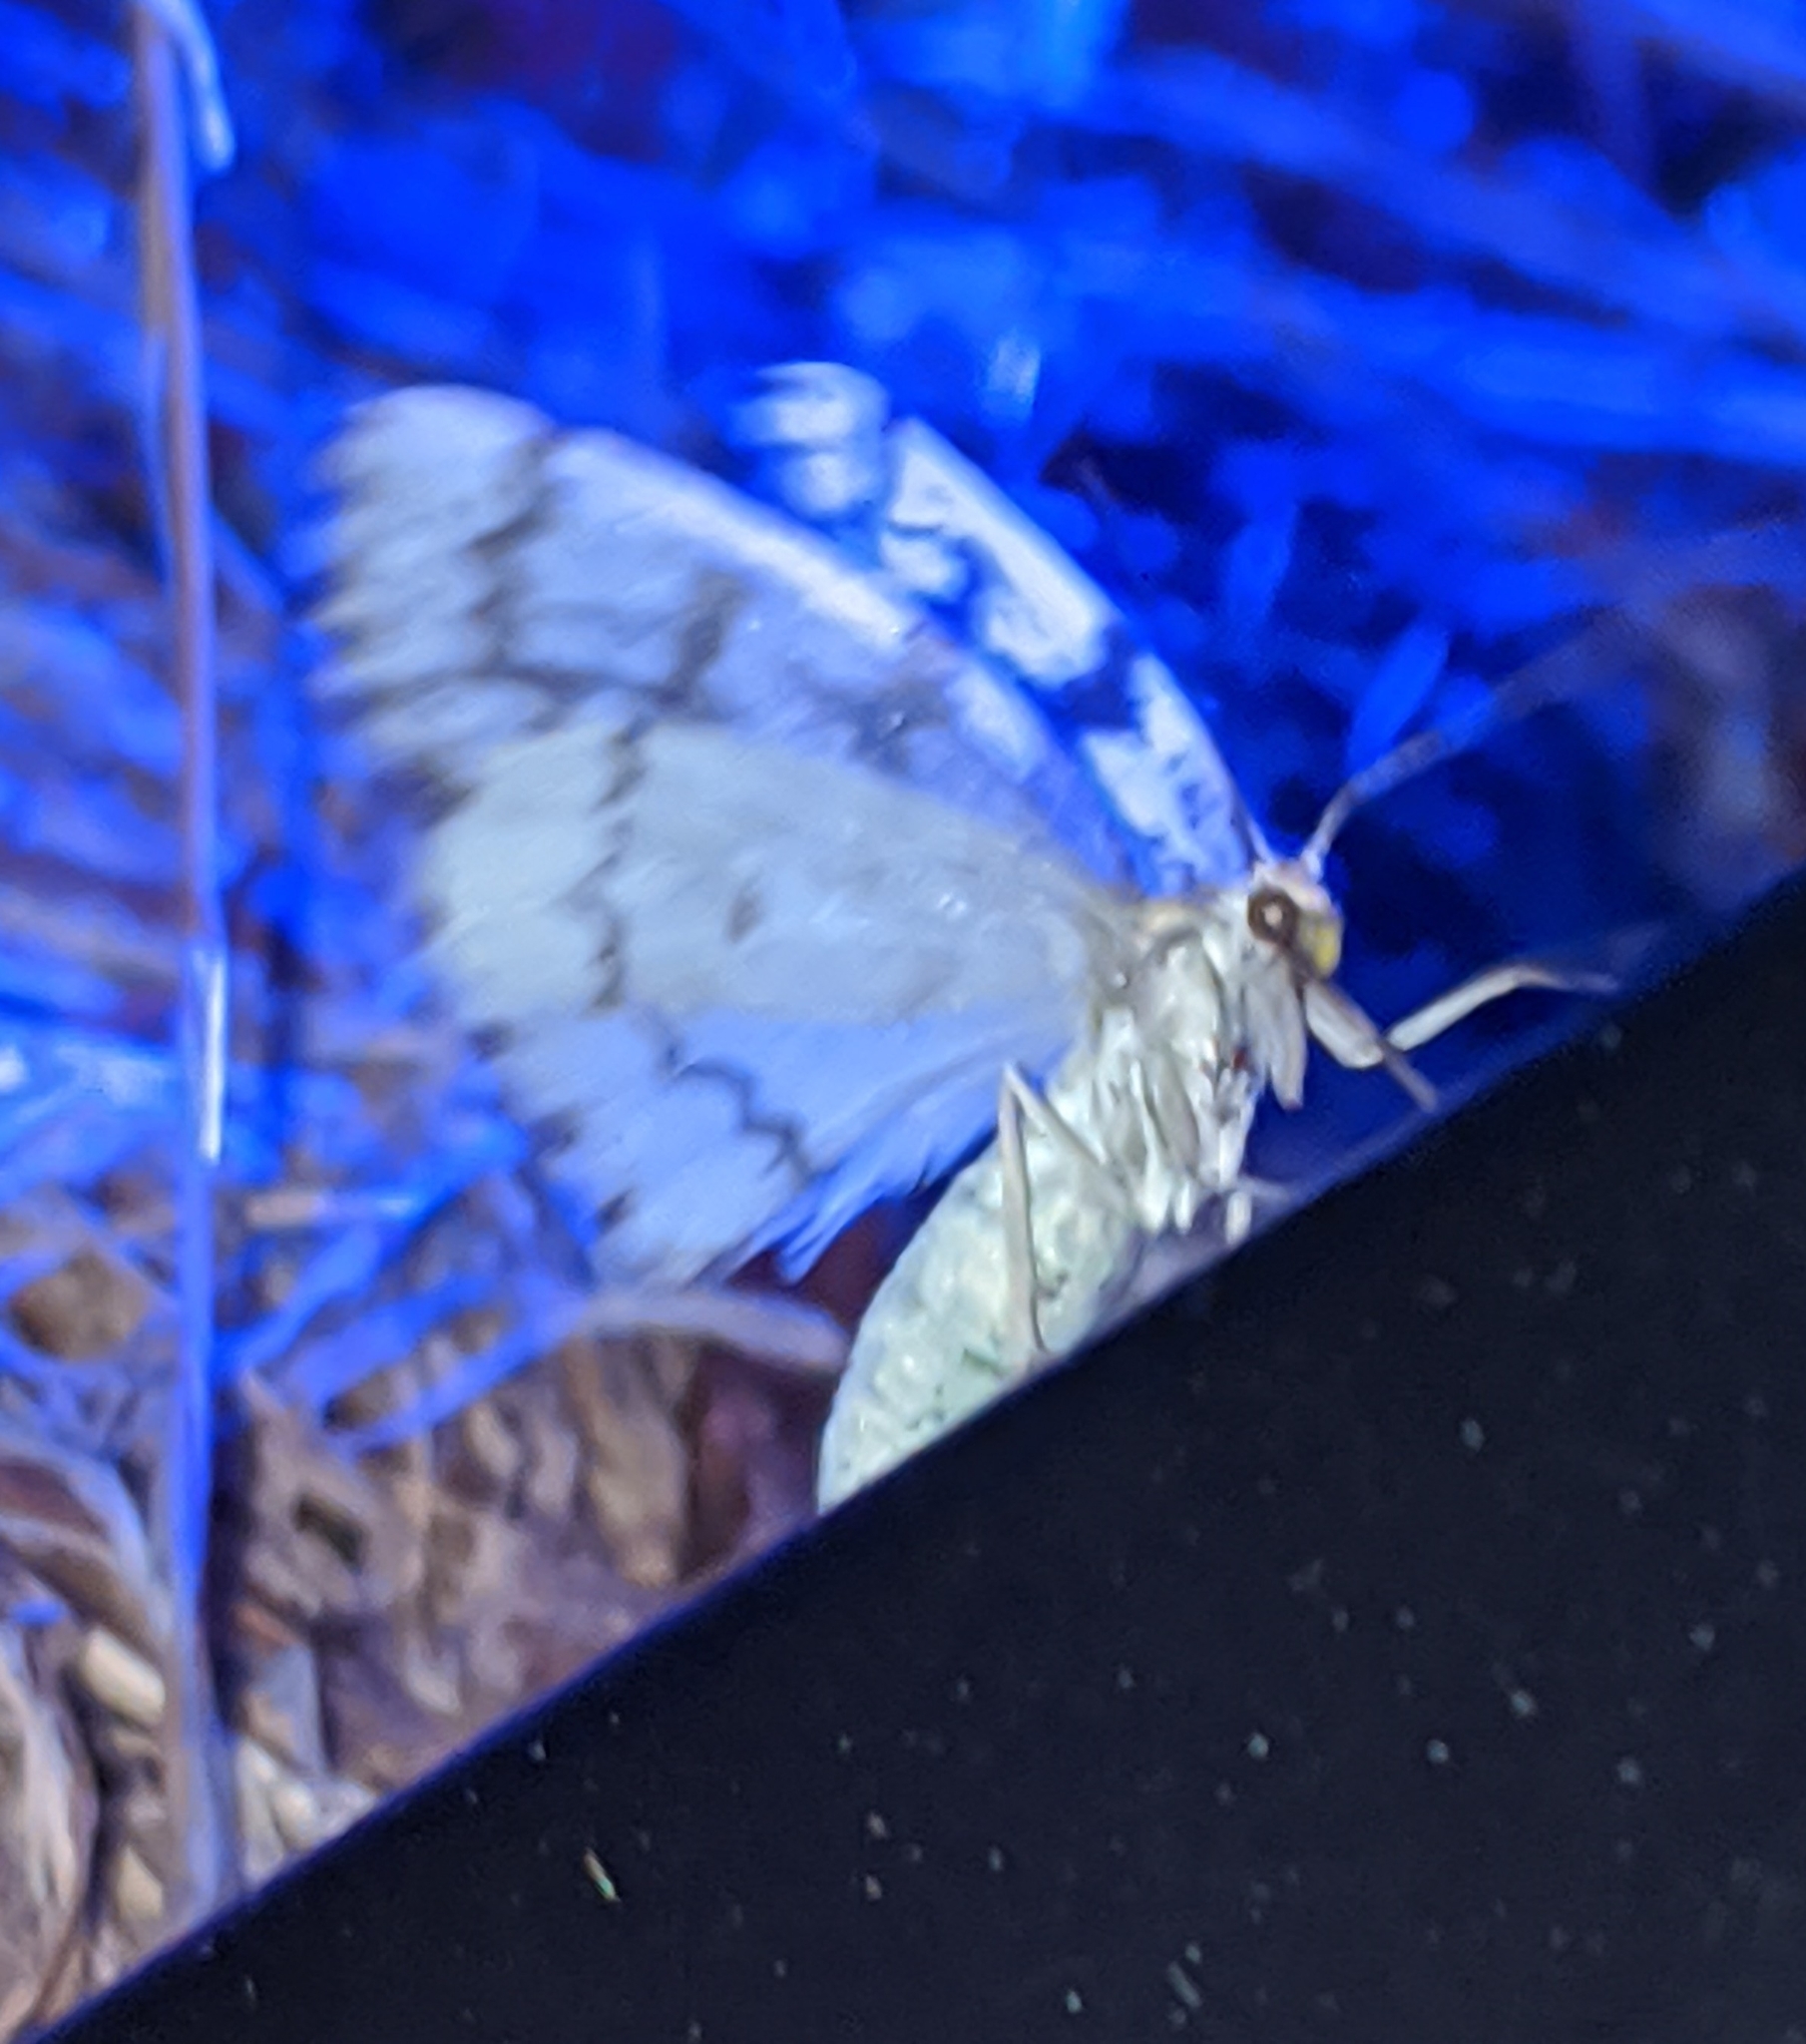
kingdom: Animalia
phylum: Arthropoda
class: Insecta
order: Lepidoptera
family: Geometridae
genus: Nepytia
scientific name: Nepytia phantasmaria
